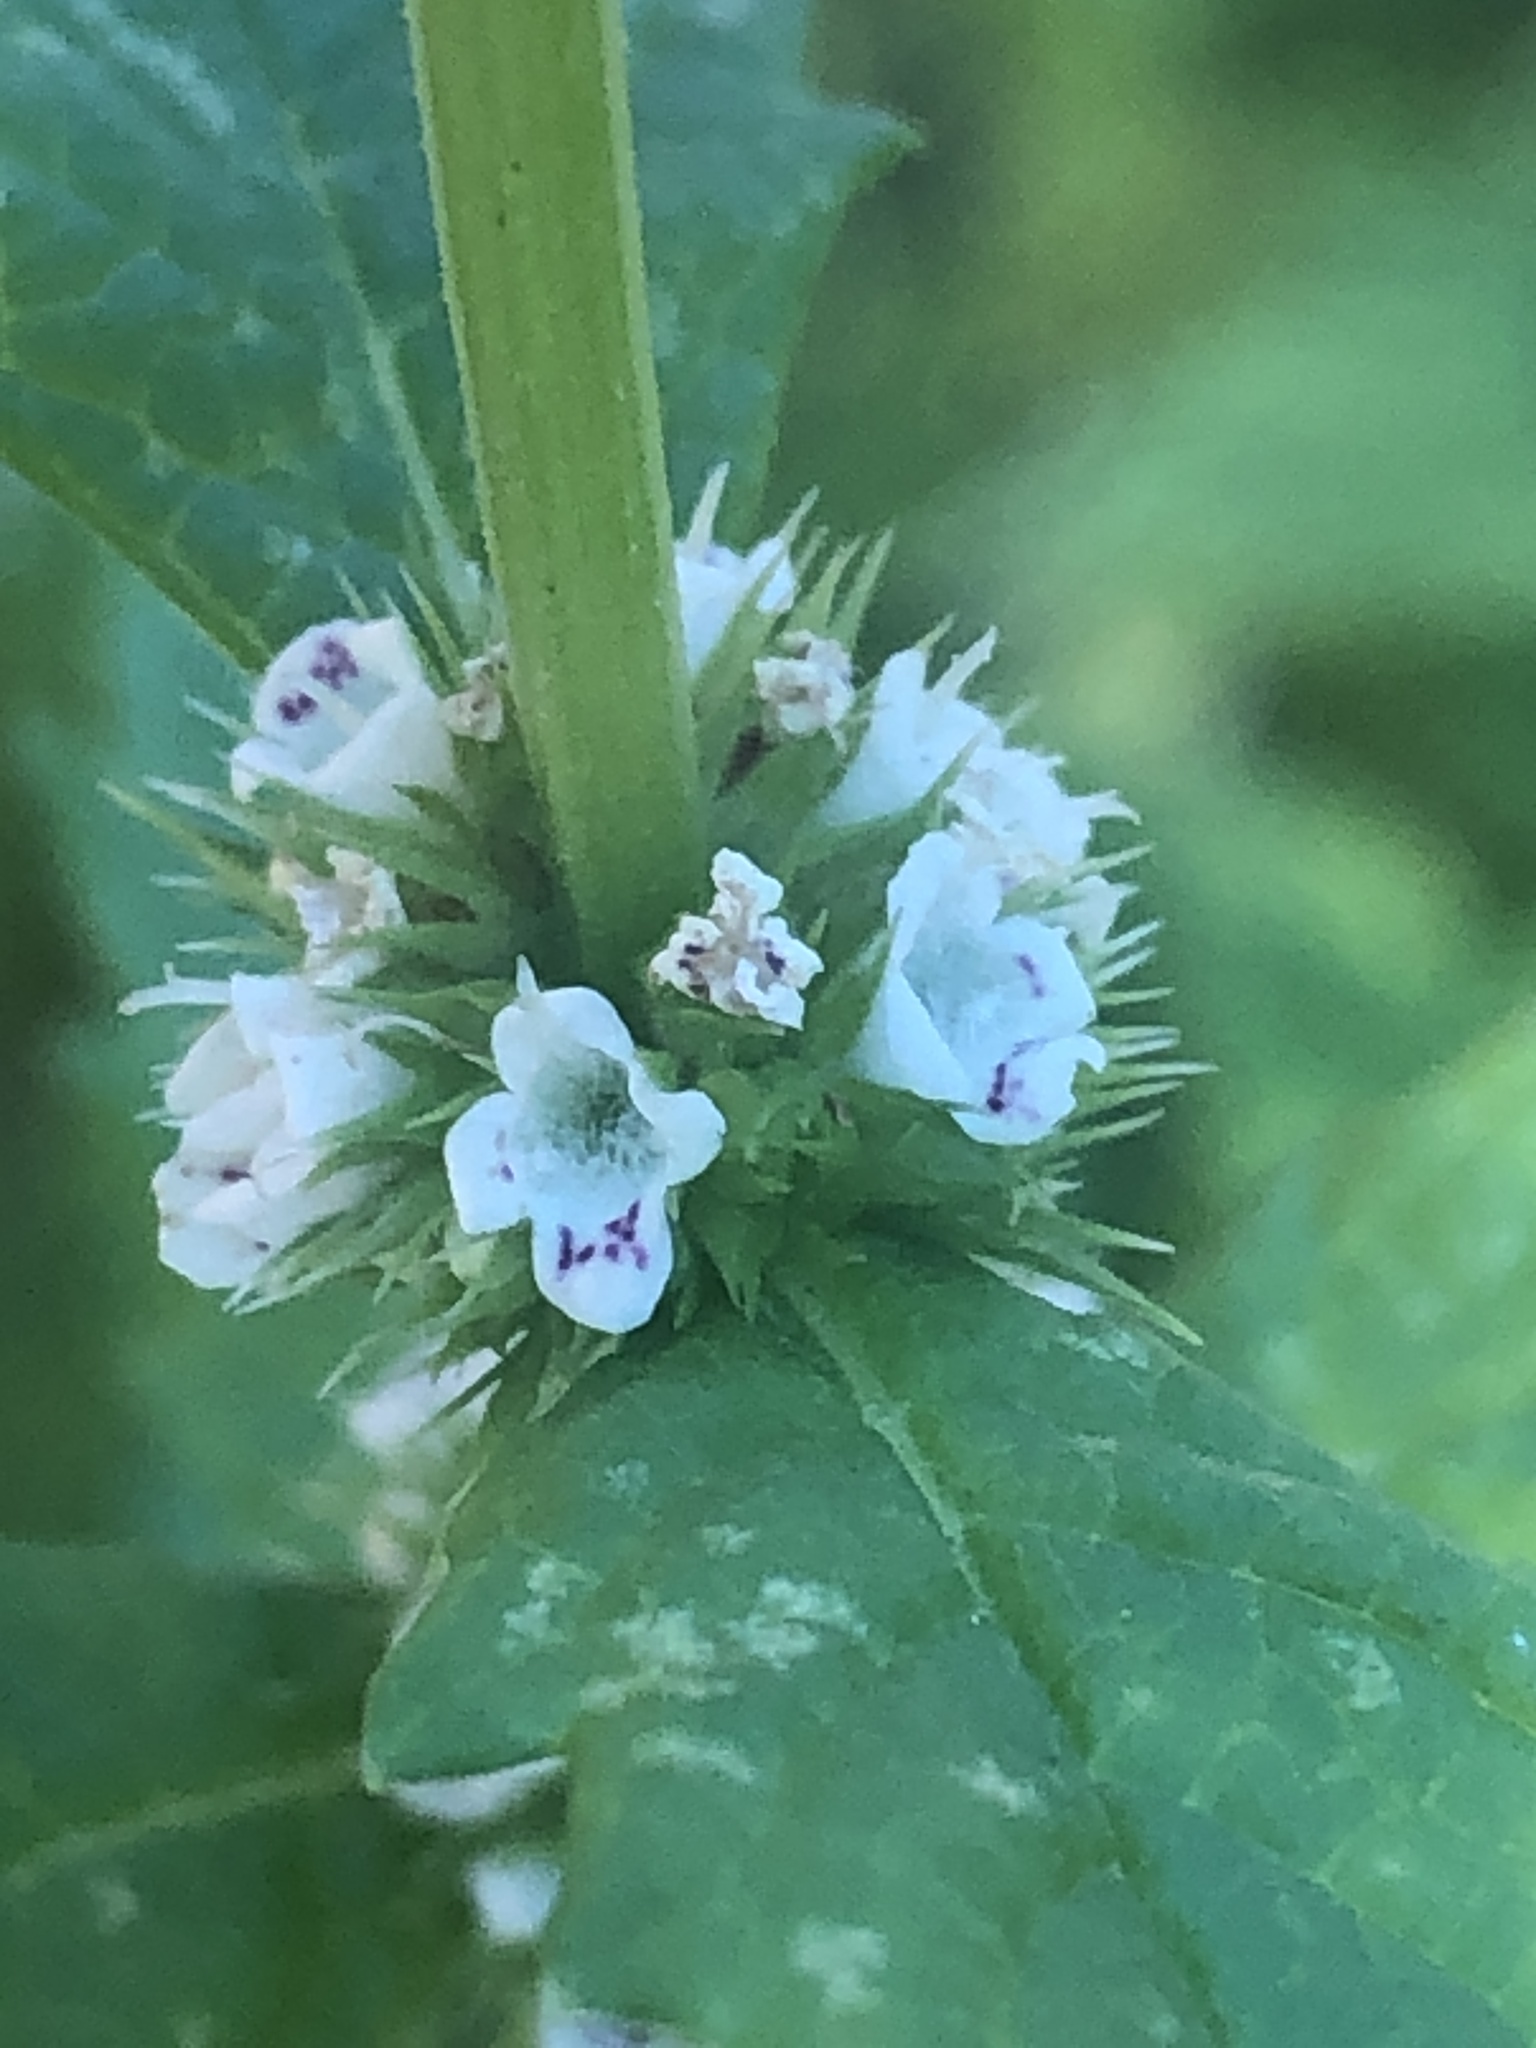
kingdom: Plantae
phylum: Tracheophyta
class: Magnoliopsida
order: Lamiales
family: Lamiaceae
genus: Lycopus
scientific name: Lycopus europaeus
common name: European bugleweed
